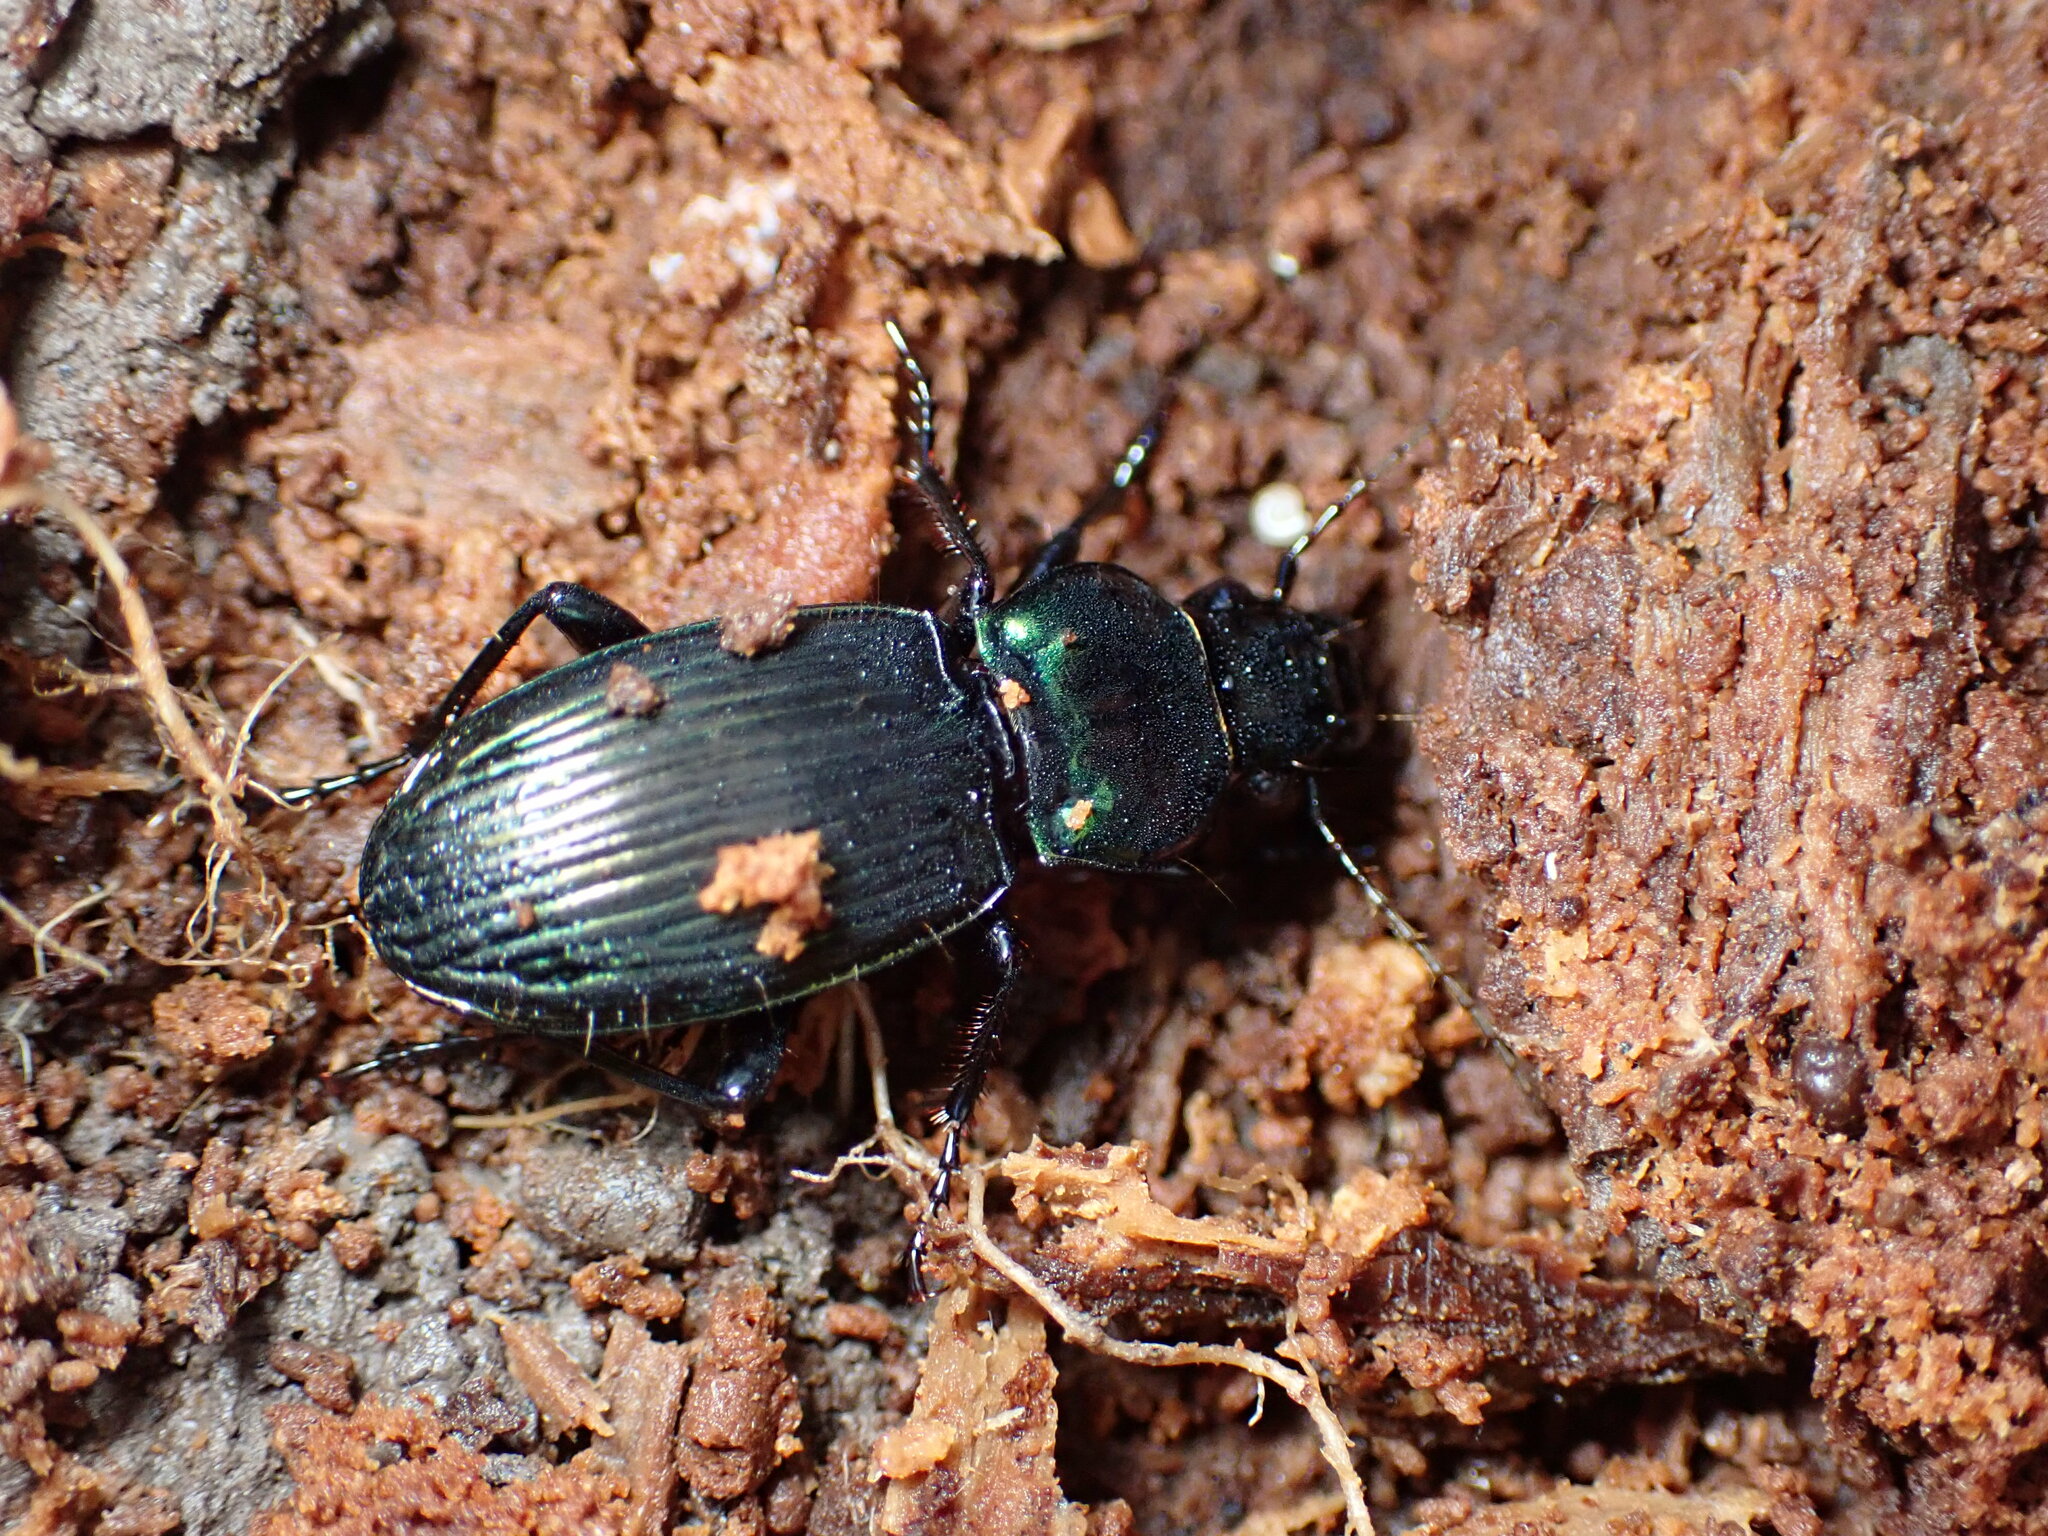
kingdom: Animalia
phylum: Arthropoda
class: Insecta
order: Coleoptera
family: Carabidae
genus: Megadromus
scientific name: Megadromus capito
